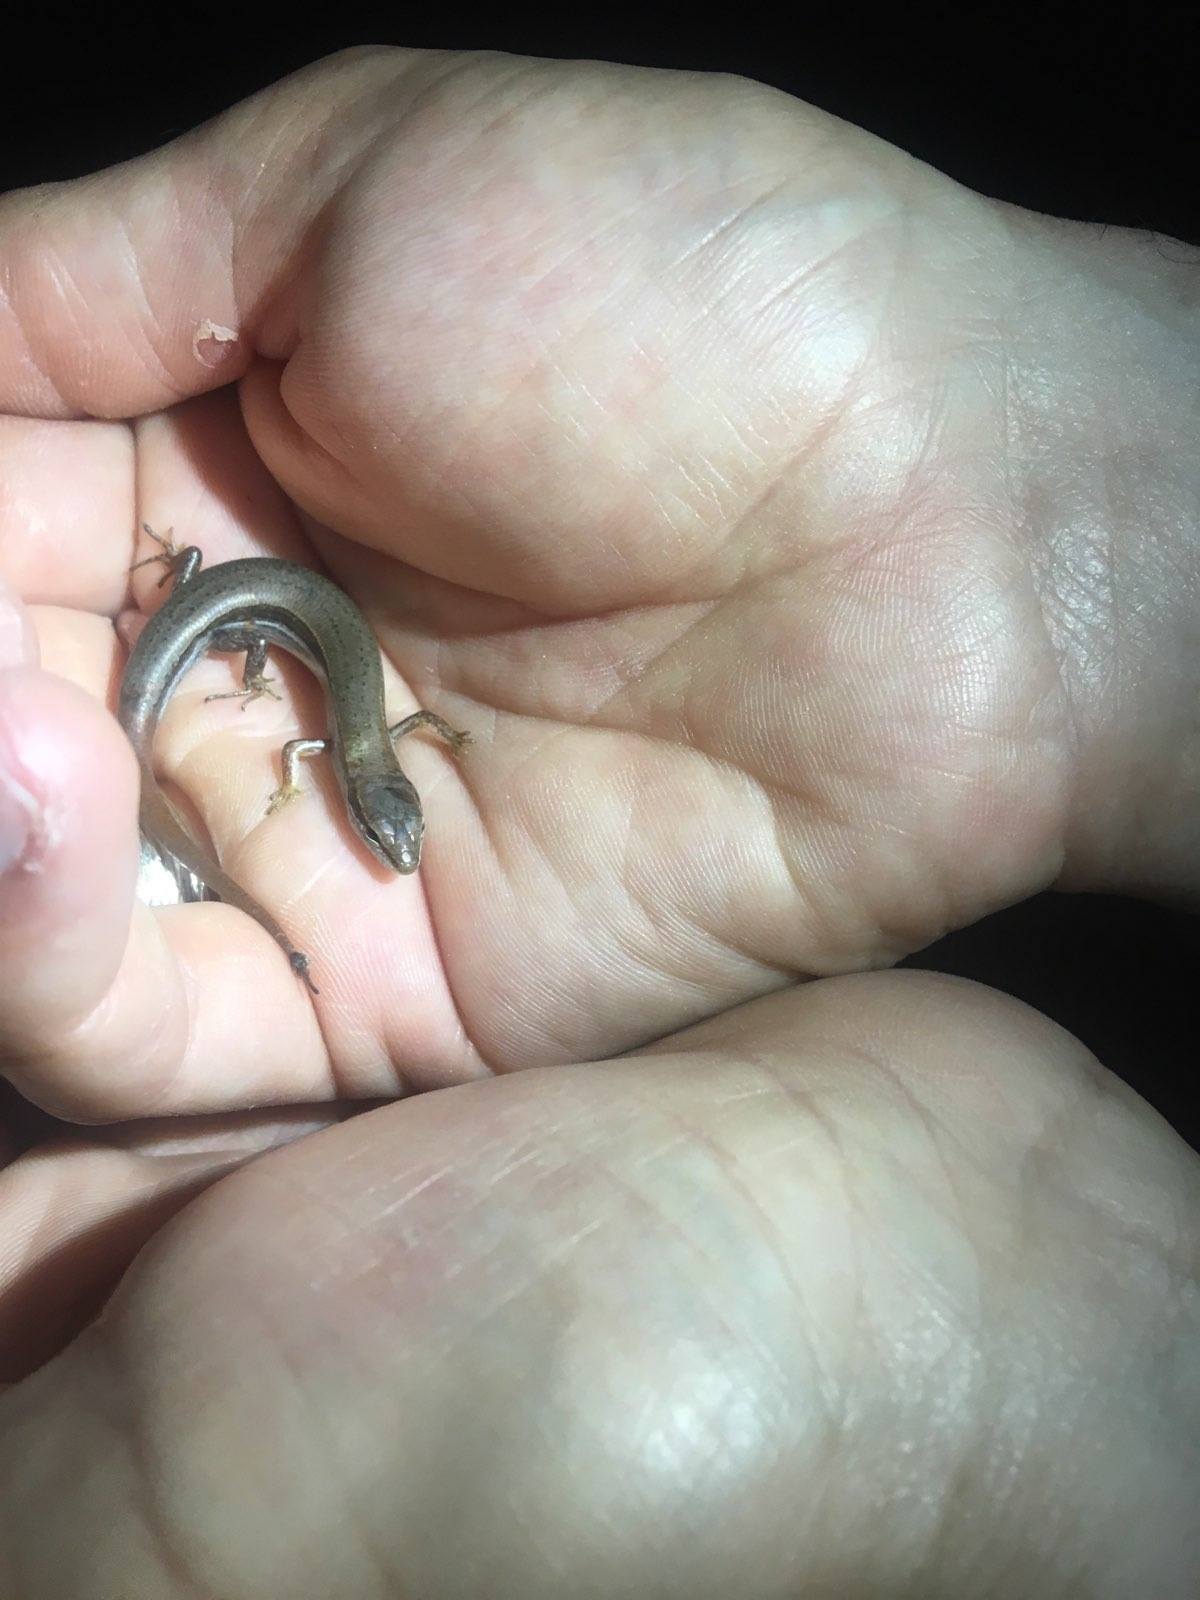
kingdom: Animalia
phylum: Chordata
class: Squamata
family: Scincidae
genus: Scincella
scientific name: Scincella lateralis
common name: Ground skink
